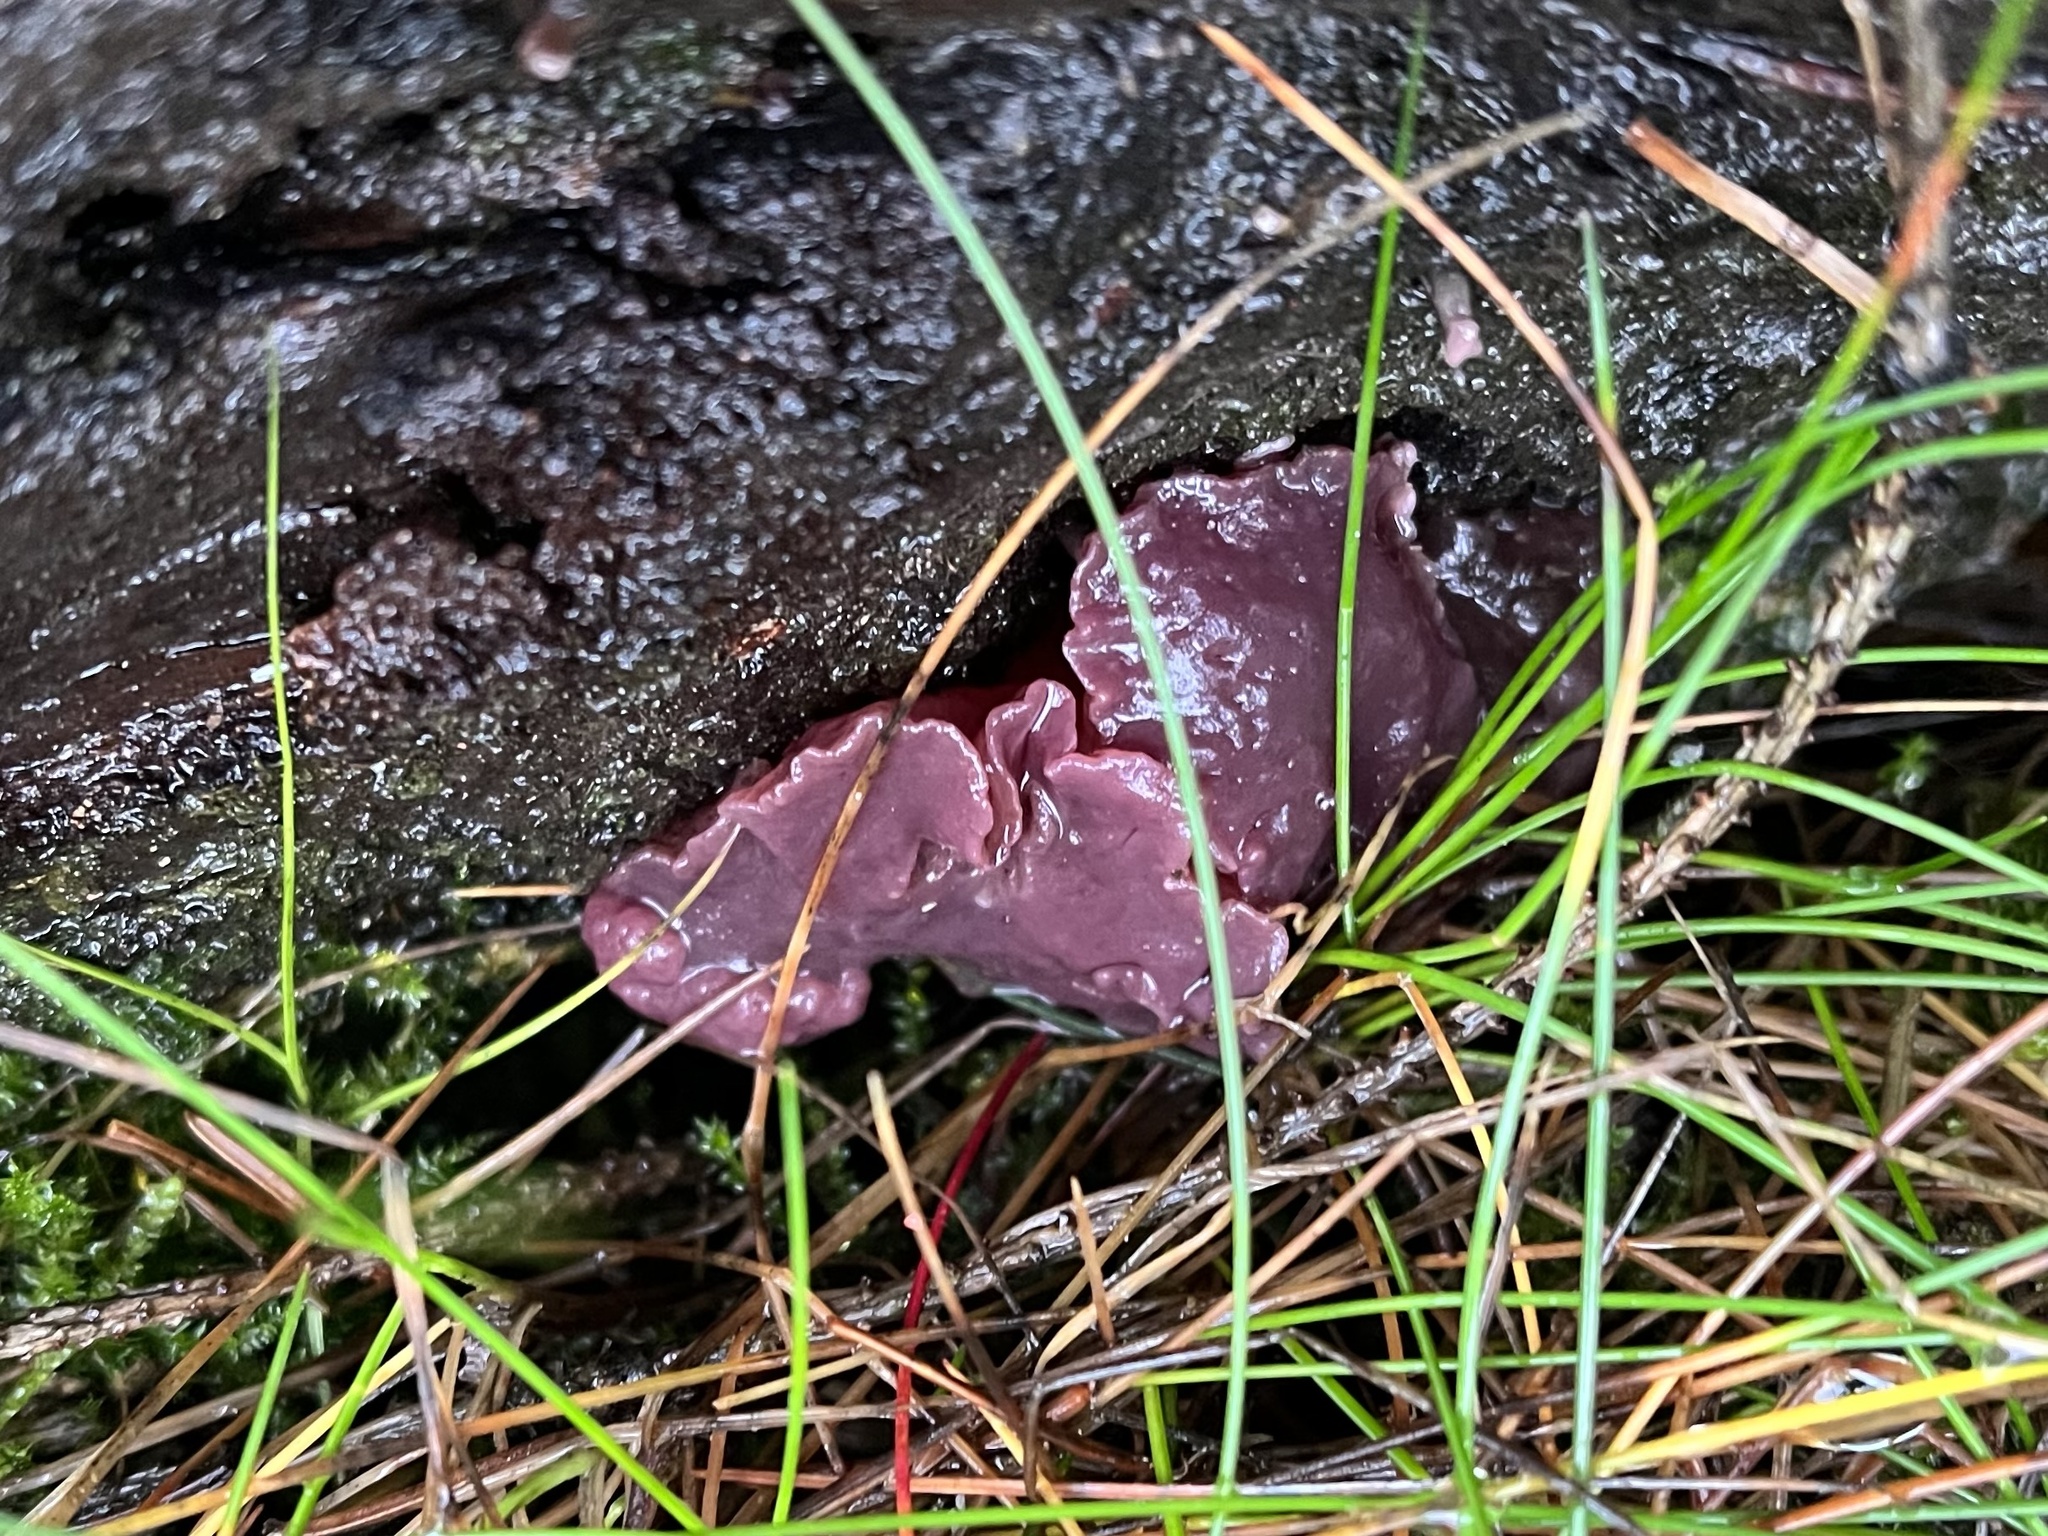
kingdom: Fungi
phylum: Ascomycota
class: Leotiomycetes
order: Helotiales
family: Gelatinodiscaceae
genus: Ascocoryne
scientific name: Ascocoryne sarcoides
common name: Purple jellydisc
